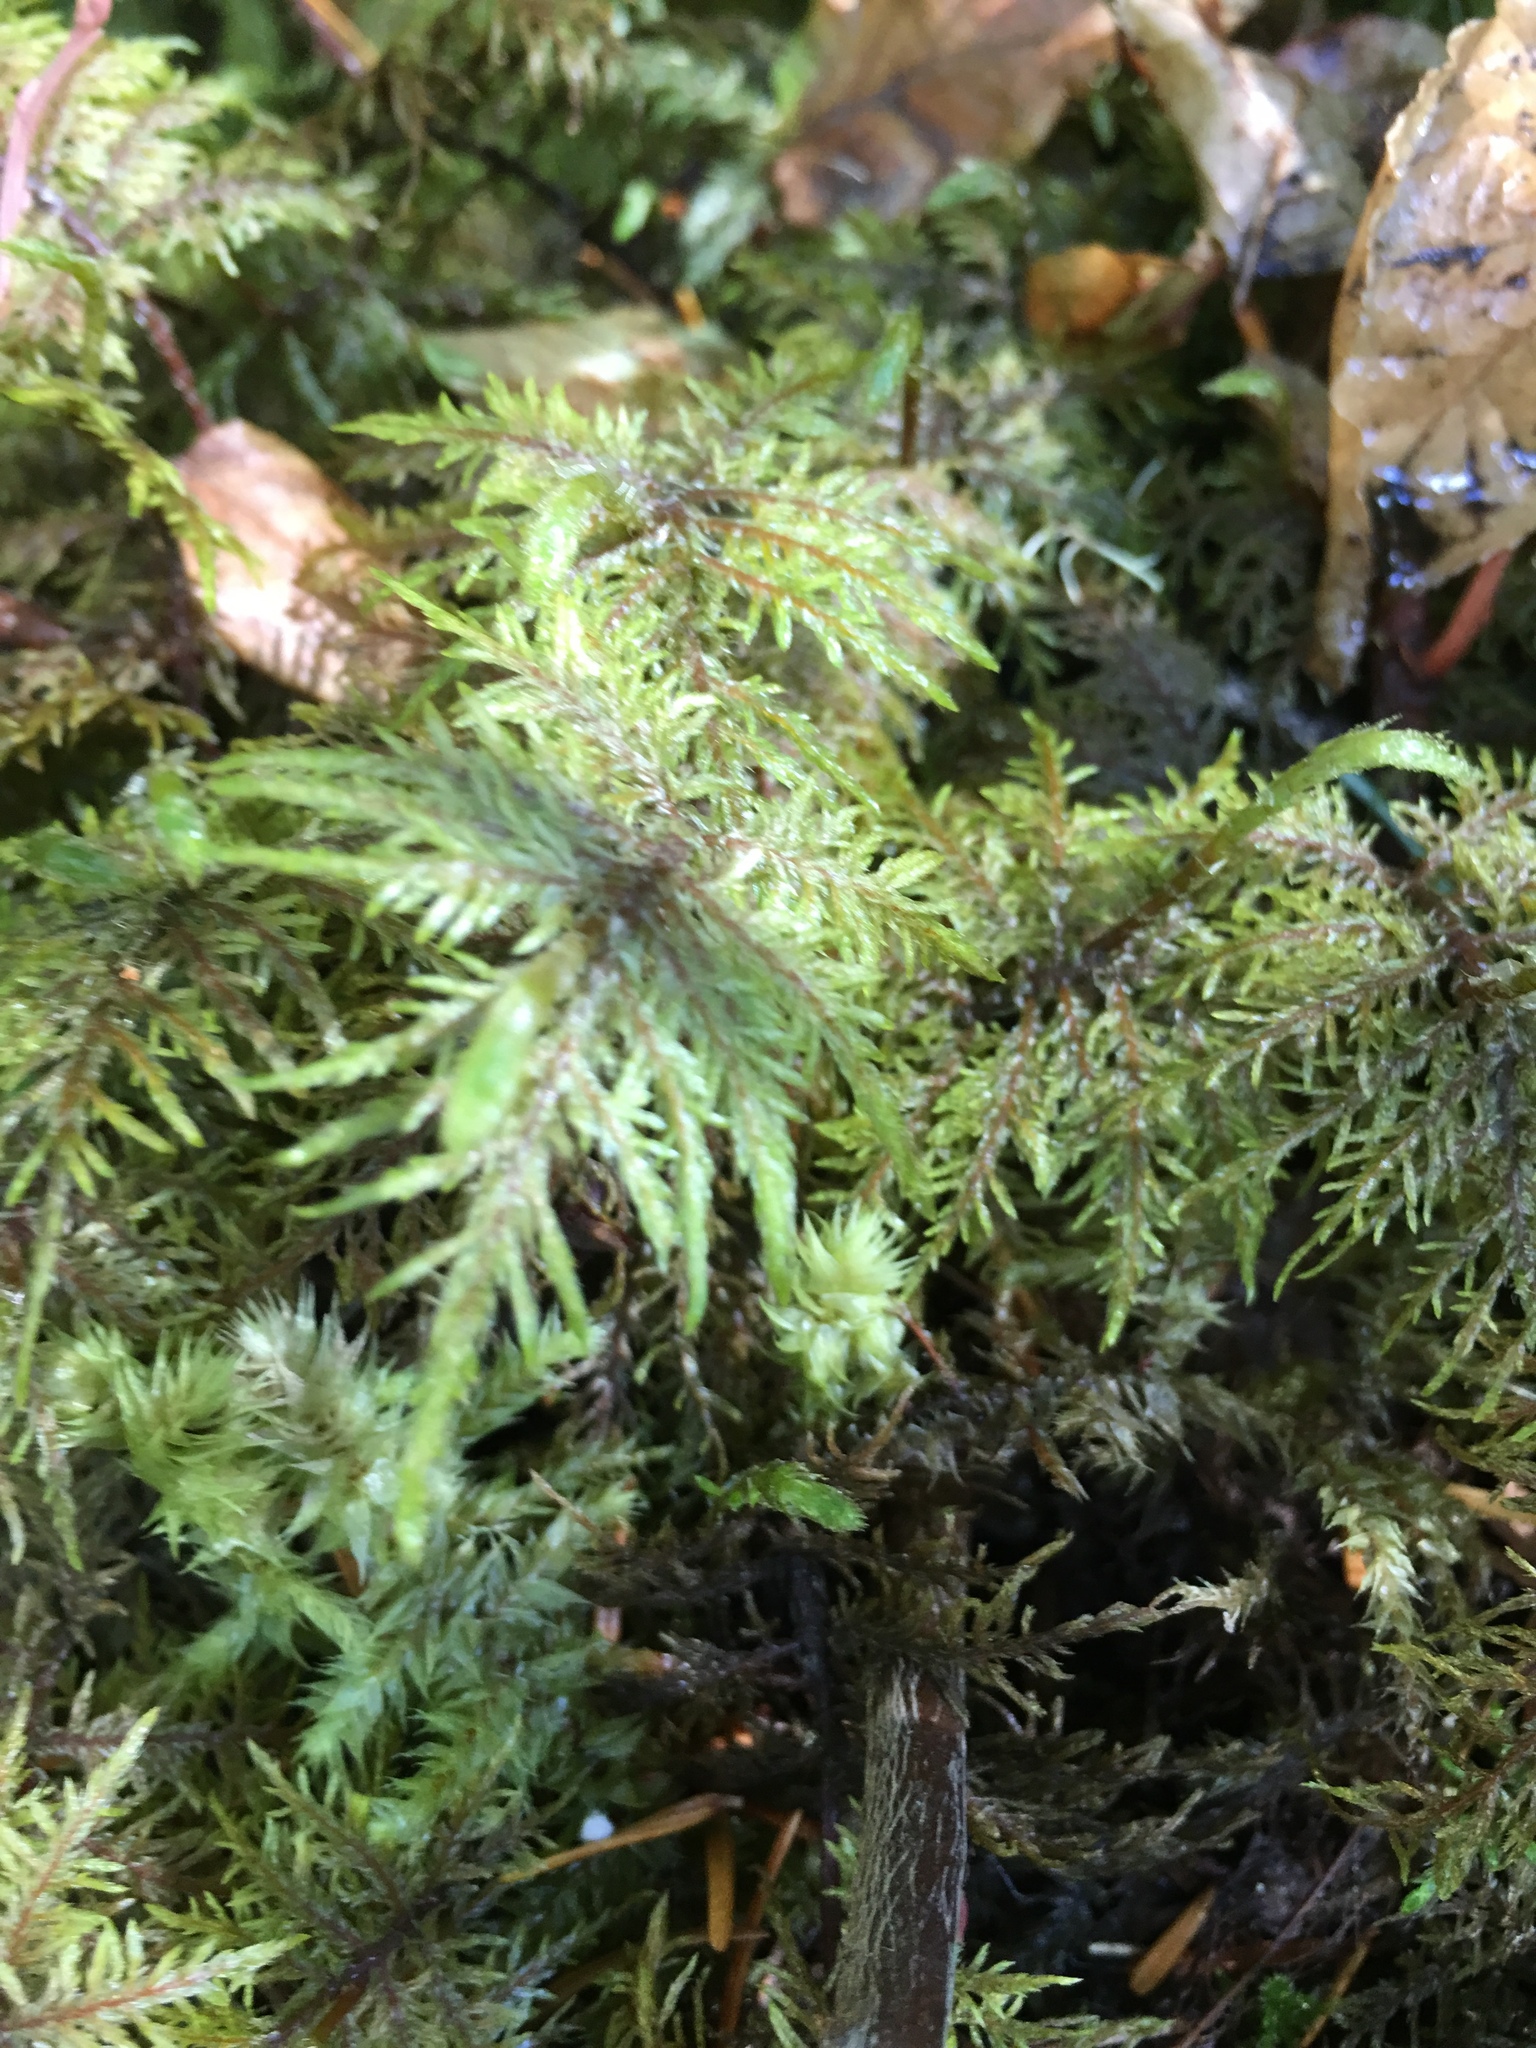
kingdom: Plantae
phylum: Bryophyta
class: Bryopsida
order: Hypnales
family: Hylocomiaceae
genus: Hylocomium
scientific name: Hylocomium splendens
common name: Stairstep moss
